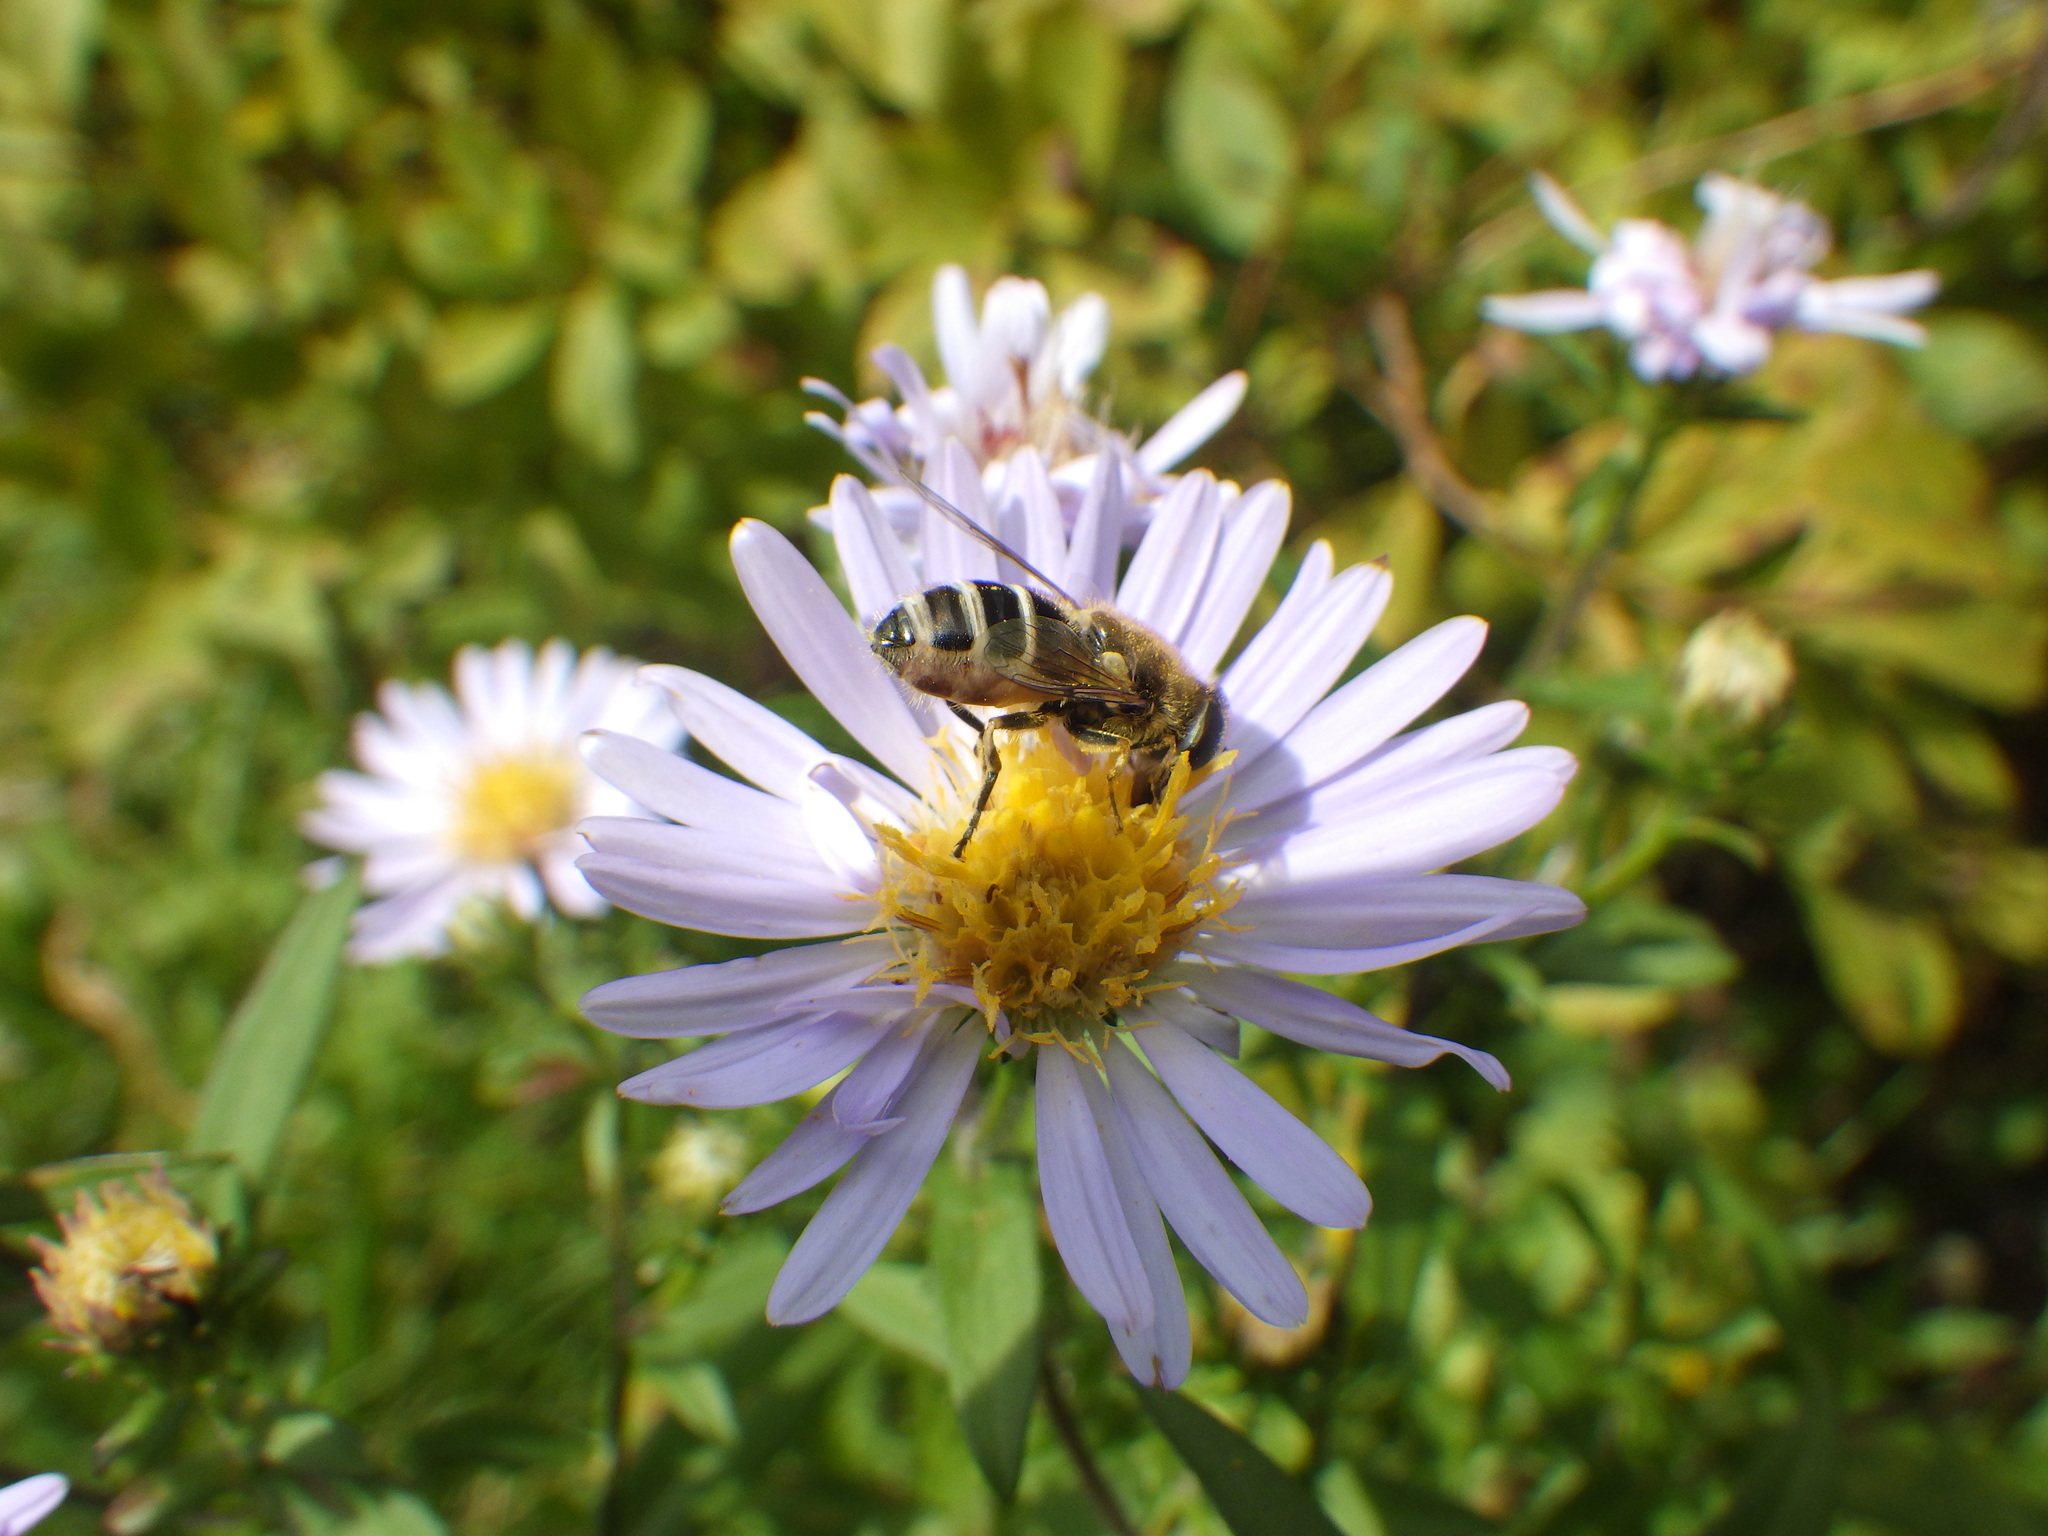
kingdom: Animalia
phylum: Arthropoda
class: Insecta
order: Diptera
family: Syrphidae
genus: Eristalis
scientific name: Eristalis arbustorum
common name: Hover fly
